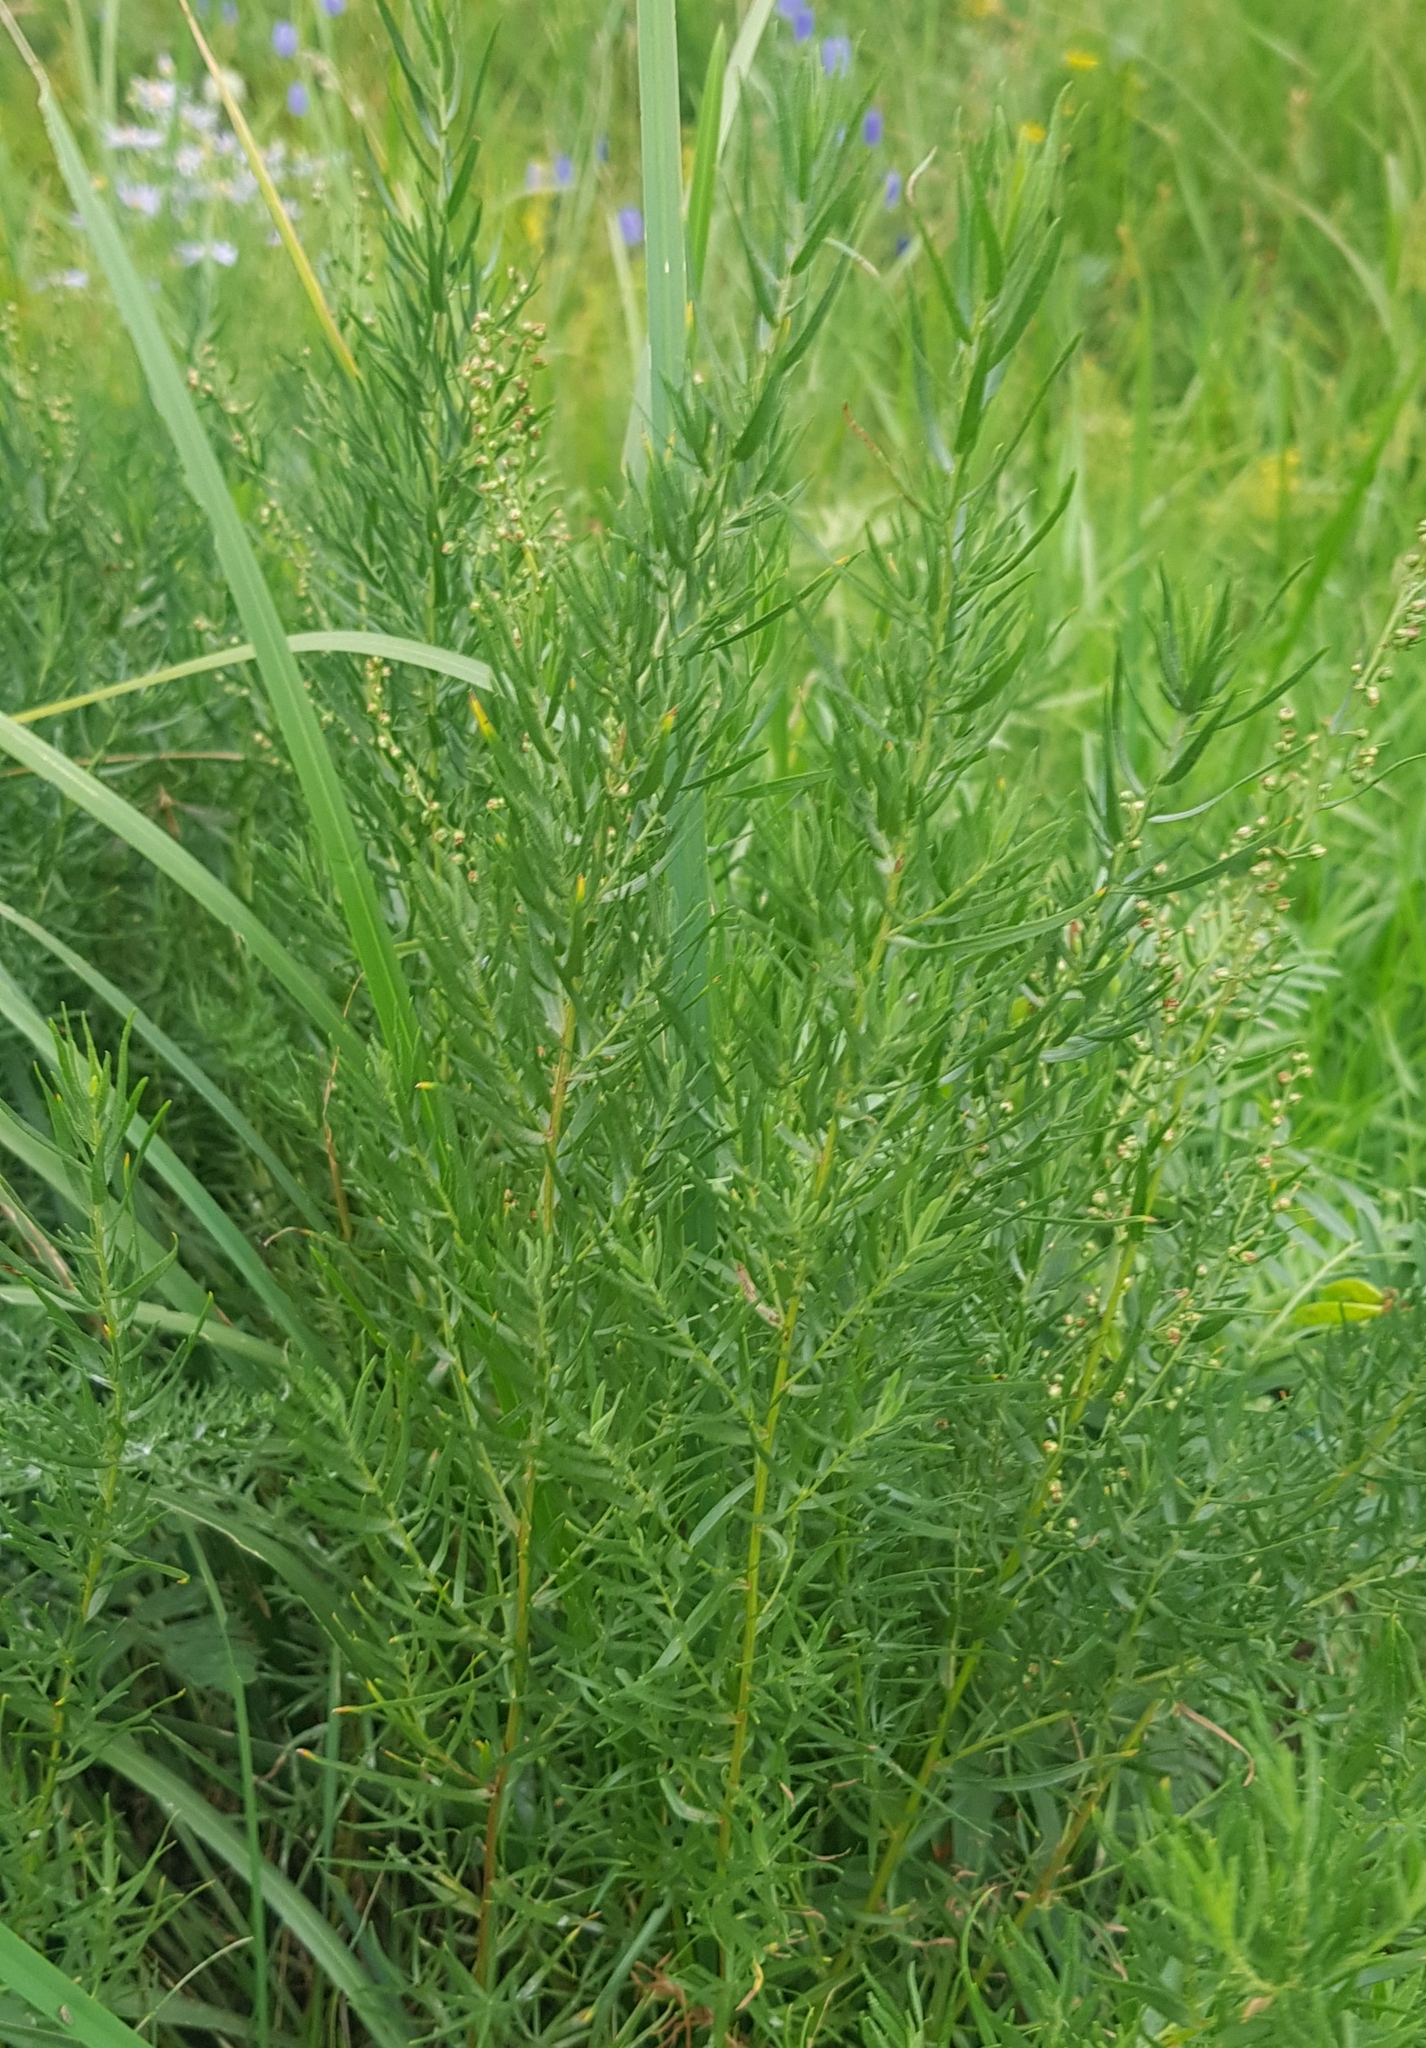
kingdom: Plantae
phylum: Tracheophyta
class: Magnoliopsida
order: Asterales
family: Asteraceae
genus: Artemisia
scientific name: Artemisia dracunculus
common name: Tarragon
